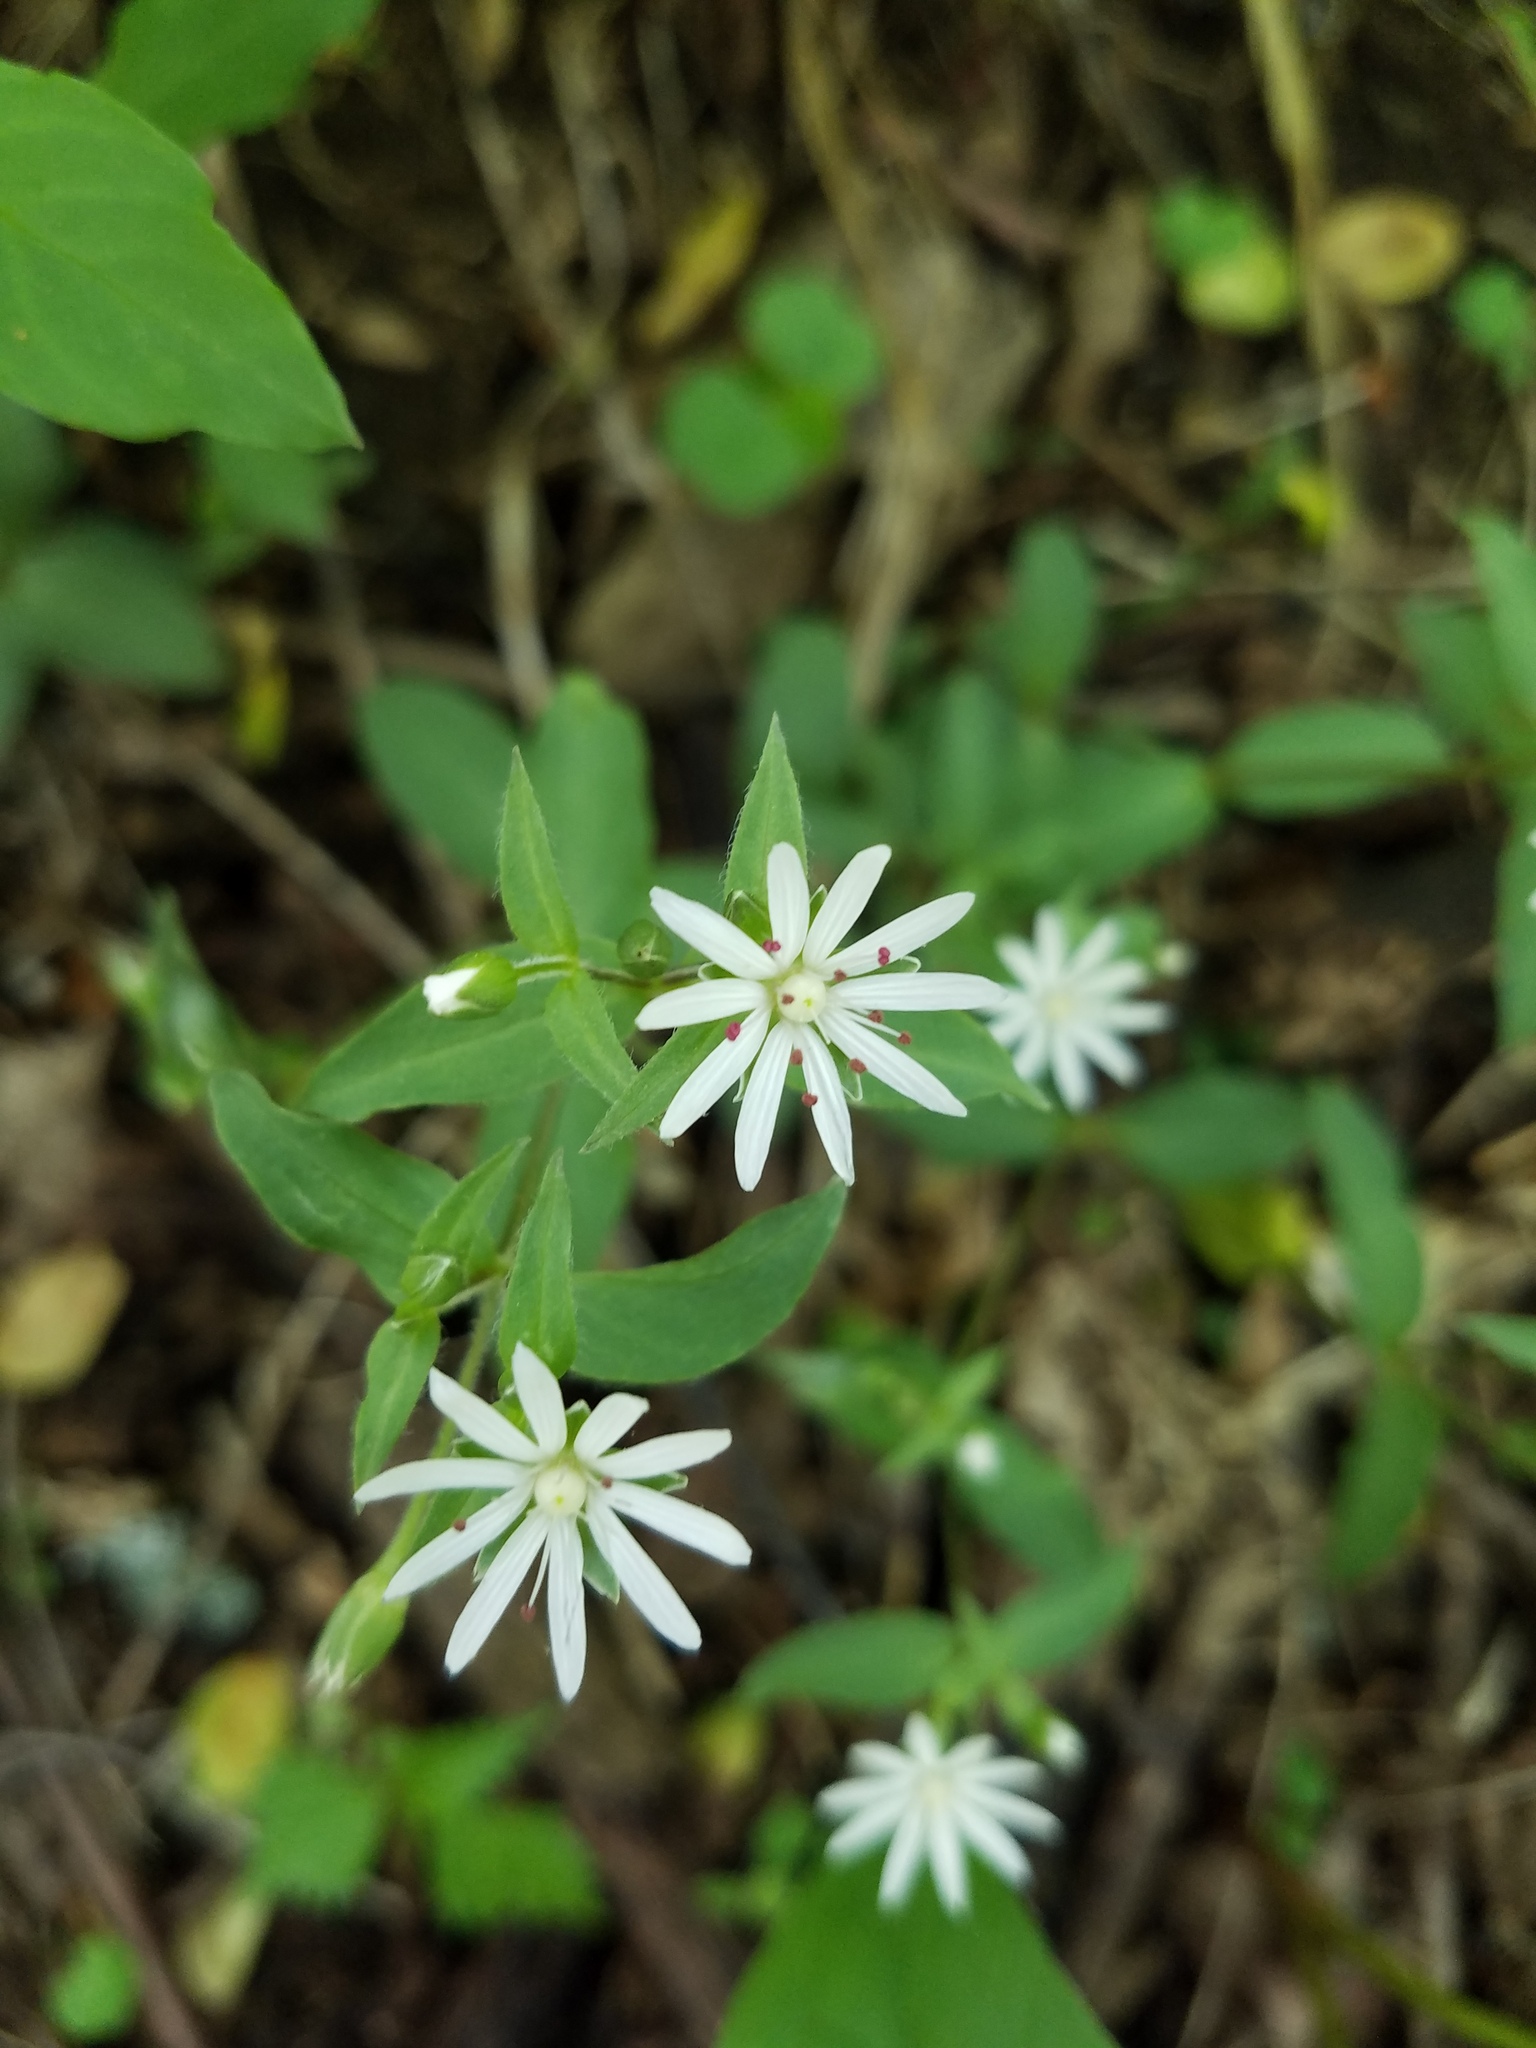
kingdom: Plantae
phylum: Tracheophyta
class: Magnoliopsida
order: Caryophyllales
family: Caryophyllaceae
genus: Stellaria
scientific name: Stellaria pubera
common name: Star chickweed
